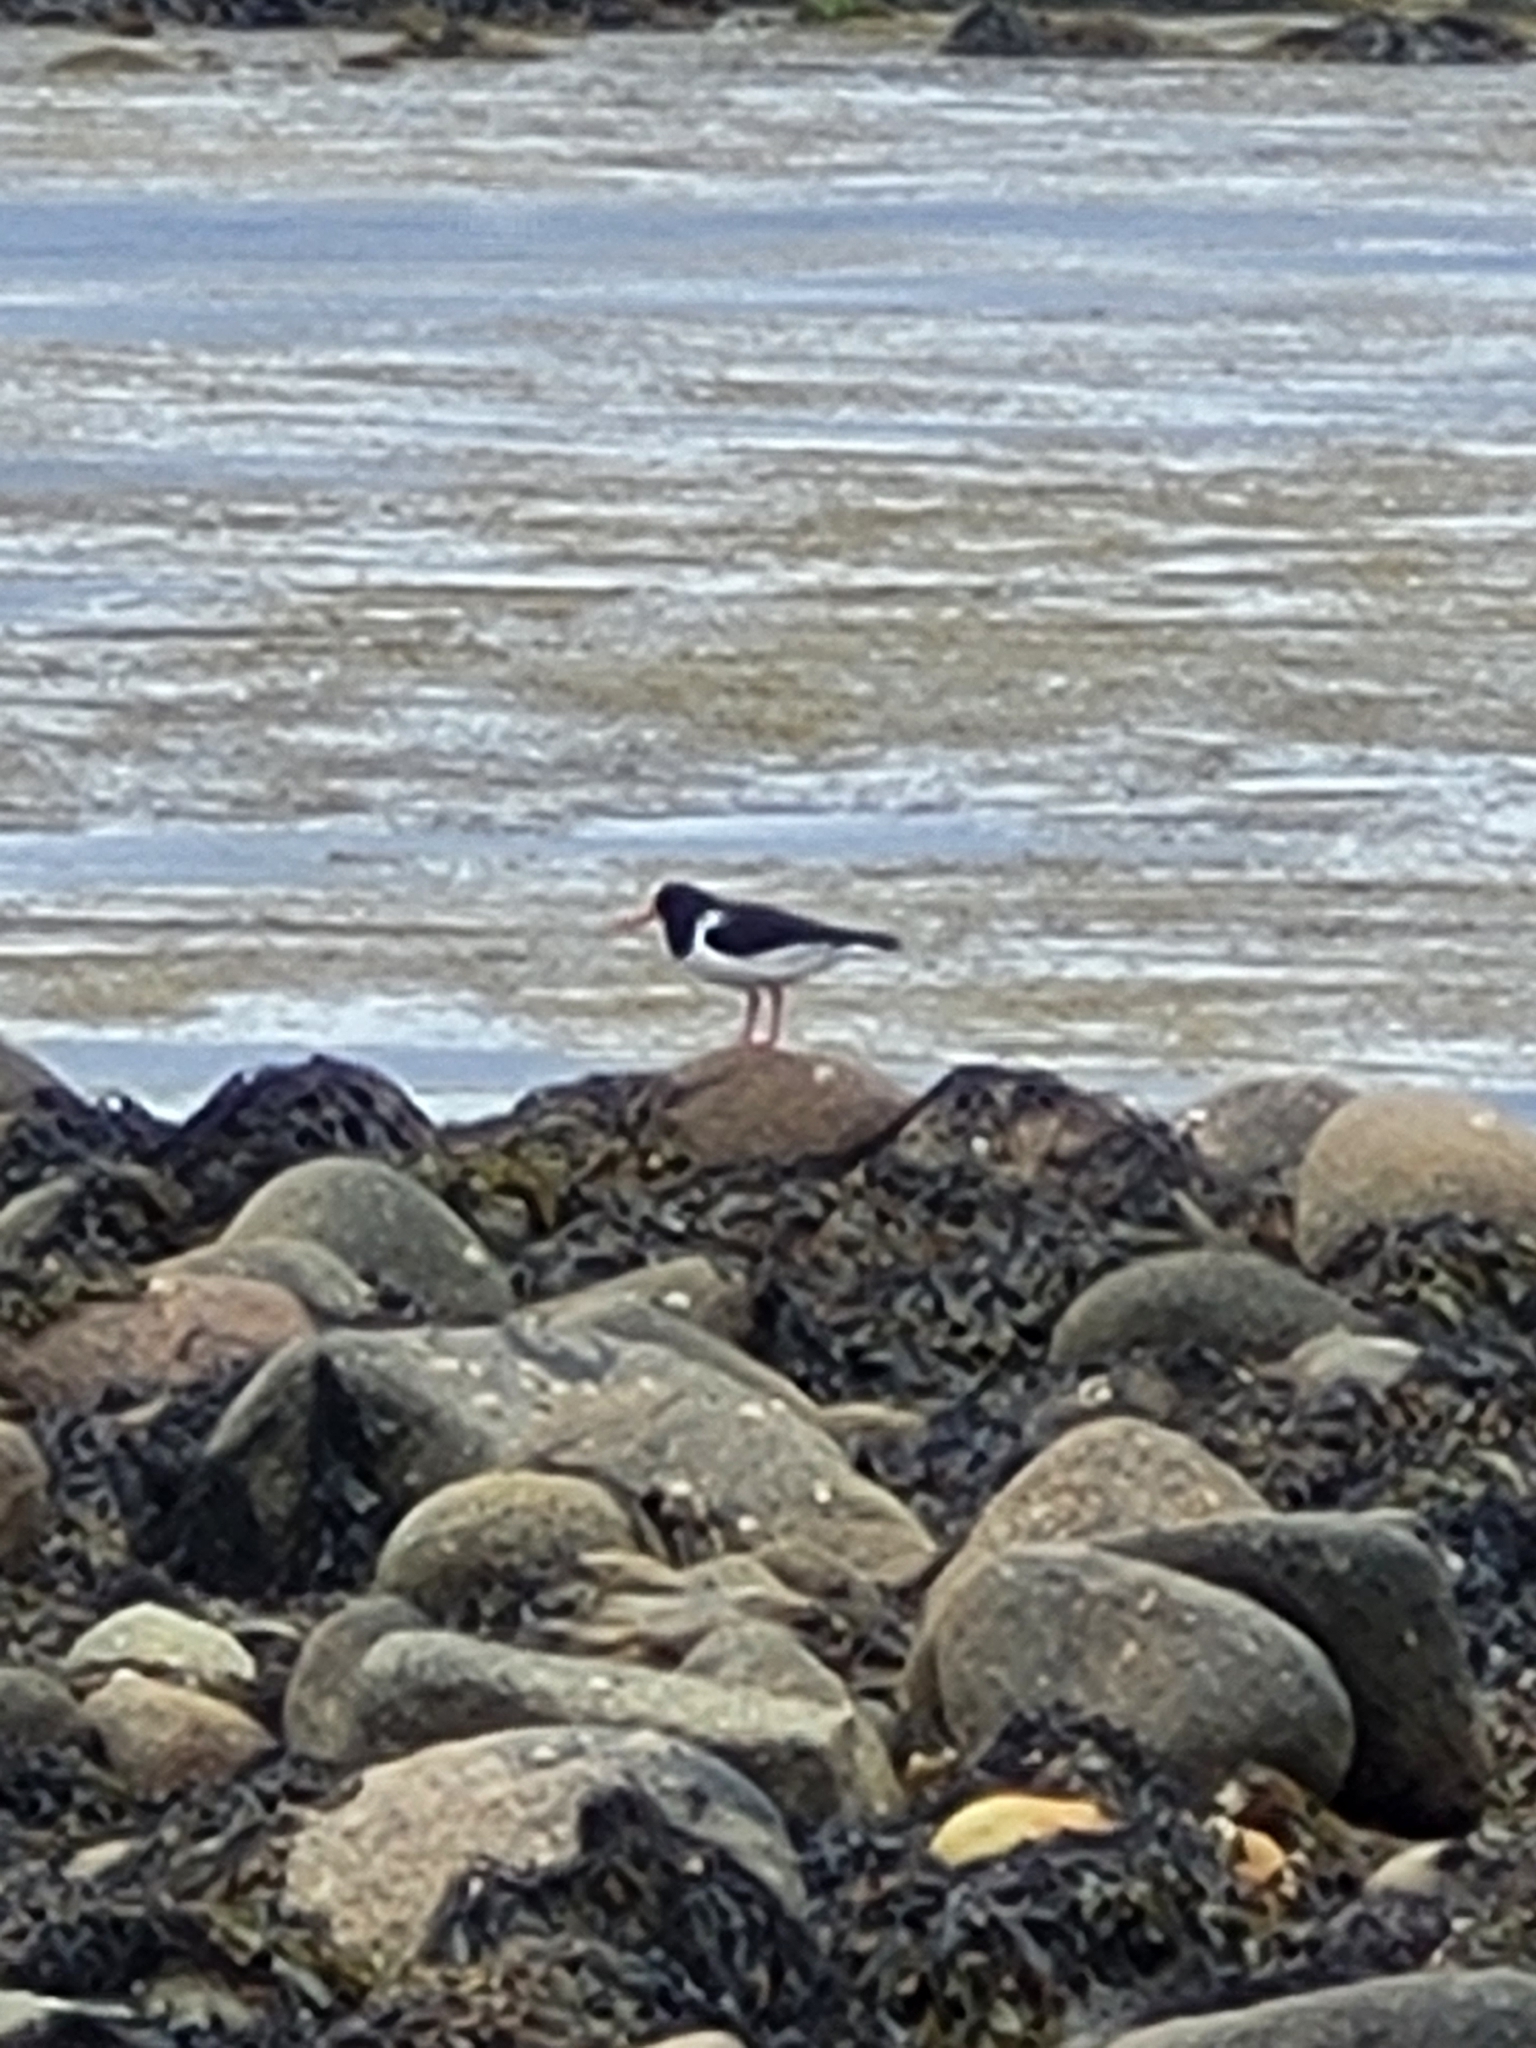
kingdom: Animalia
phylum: Chordata
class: Aves
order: Charadriiformes
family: Haematopodidae
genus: Haematopus
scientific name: Haematopus ostralegus
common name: Eurasian oystercatcher
